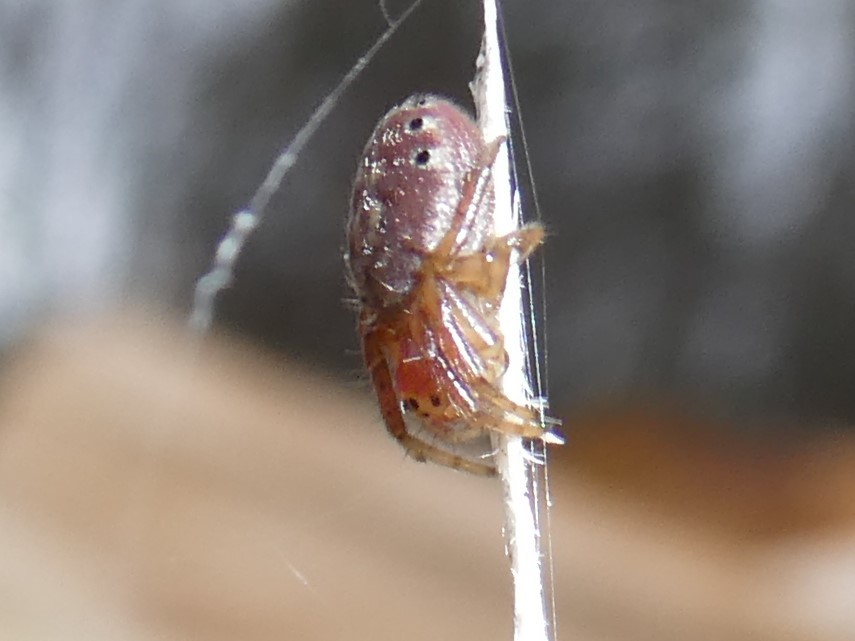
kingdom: Animalia
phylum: Arthropoda
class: Arachnida
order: Araneae
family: Araneidae
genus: Araniella
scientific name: Araniella displicata
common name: Sixspotted orb weaver
